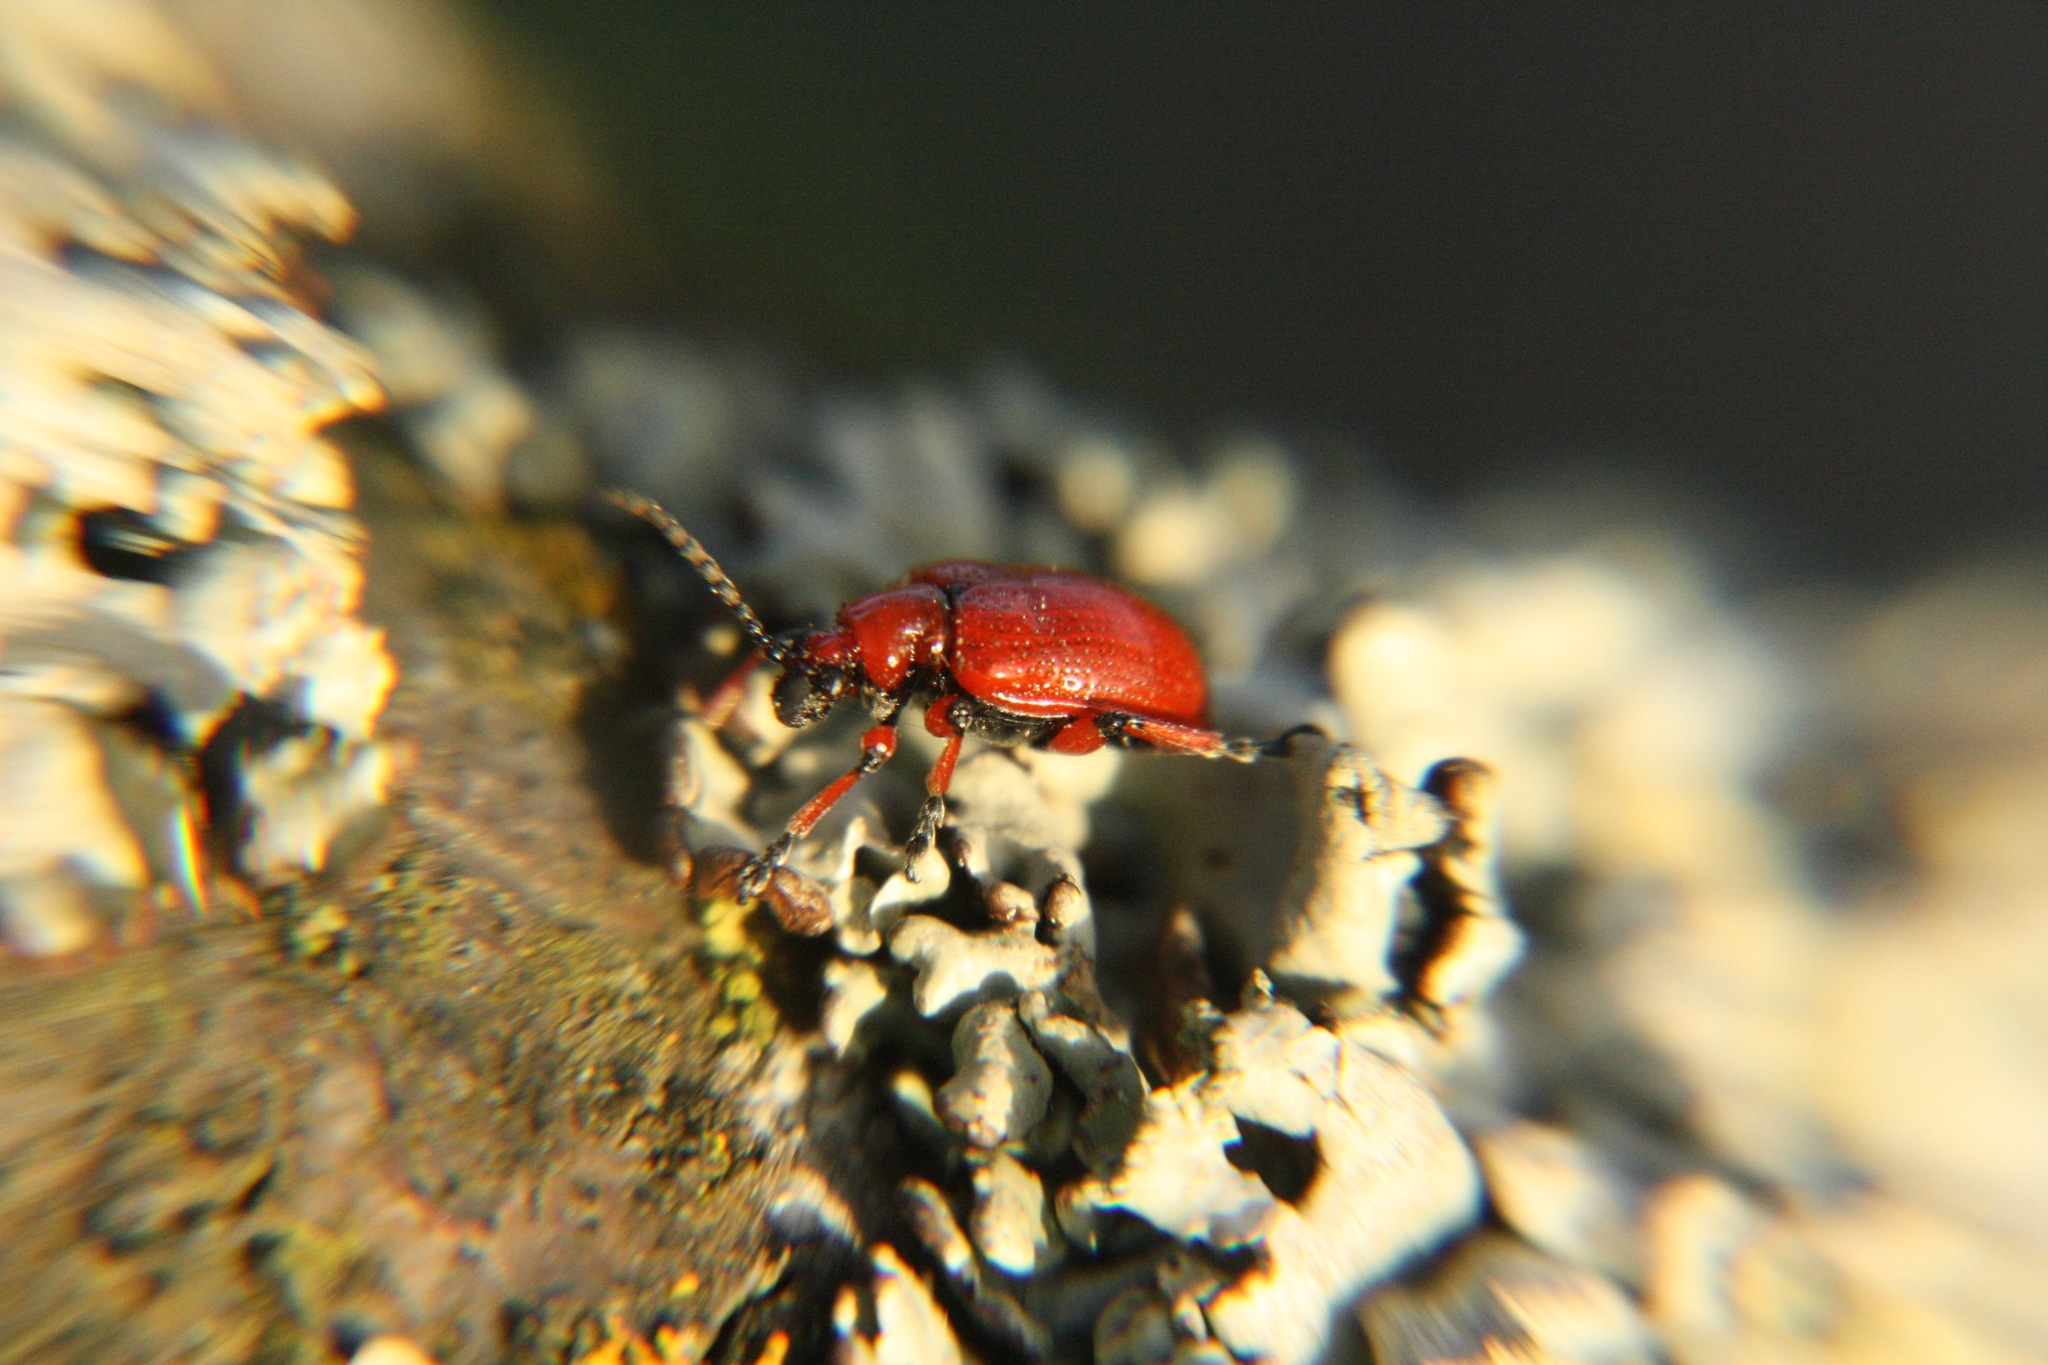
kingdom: Animalia
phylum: Arthropoda
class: Insecta
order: Coleoptera
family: Chrysomelidae
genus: Lilioceris
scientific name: Lilioceris merdigera
